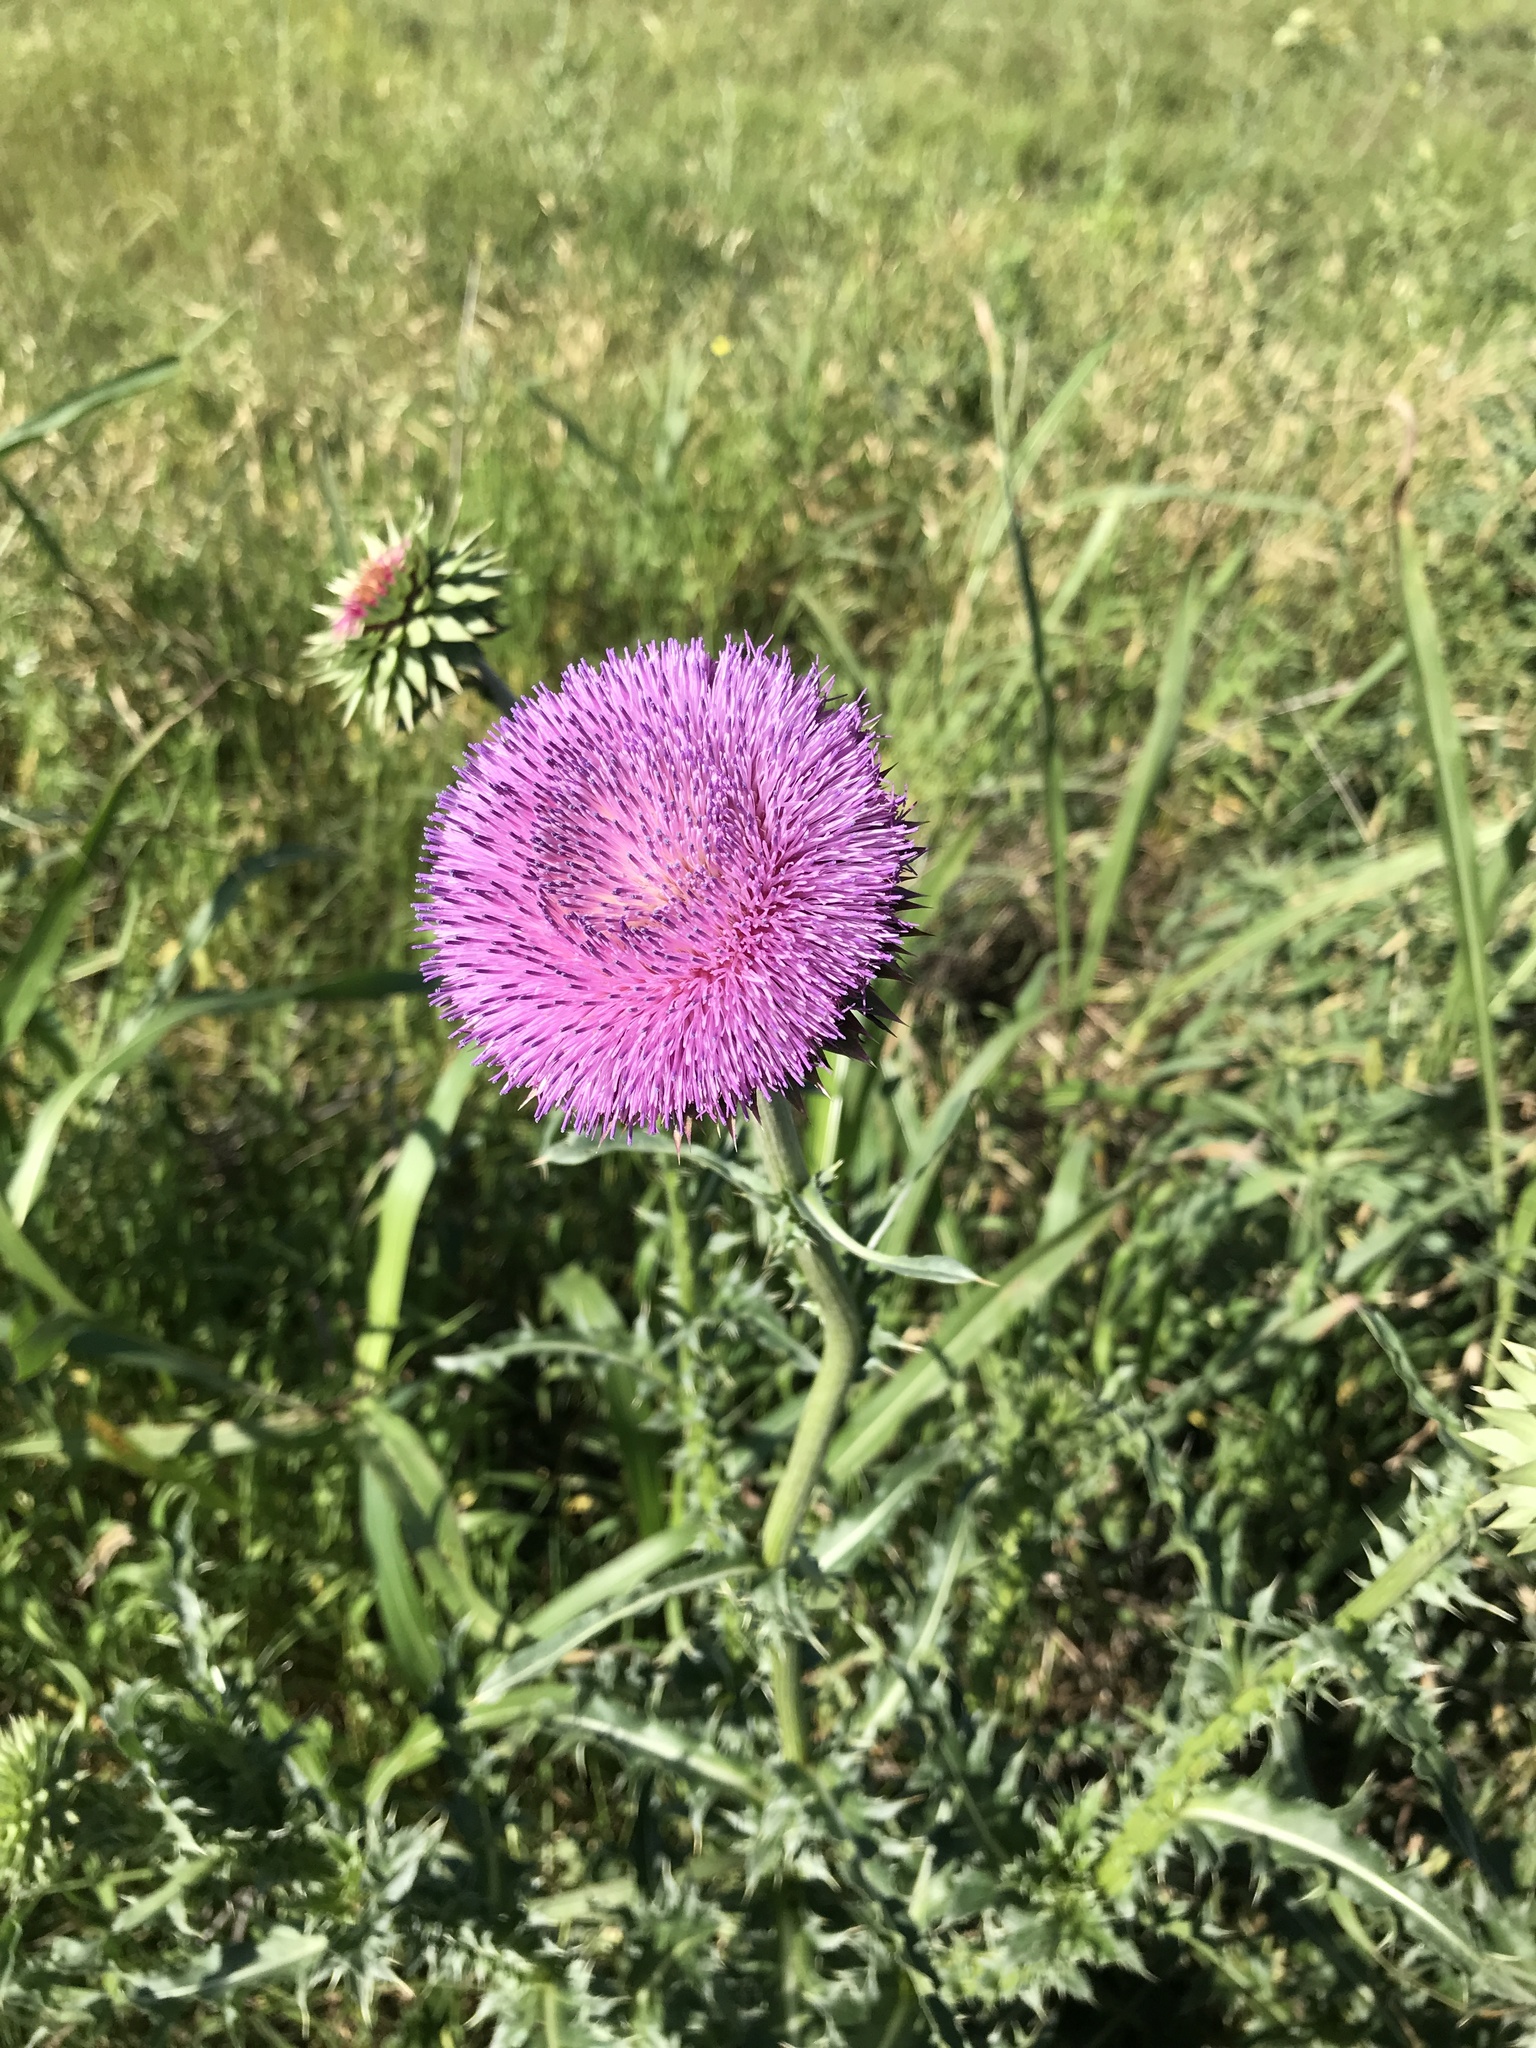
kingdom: Plantae
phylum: Tracheophyta
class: Magnoliopsida
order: Asterales
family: Asteraceae
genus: Carduus
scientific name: Carduus nutans
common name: Musk thistle
